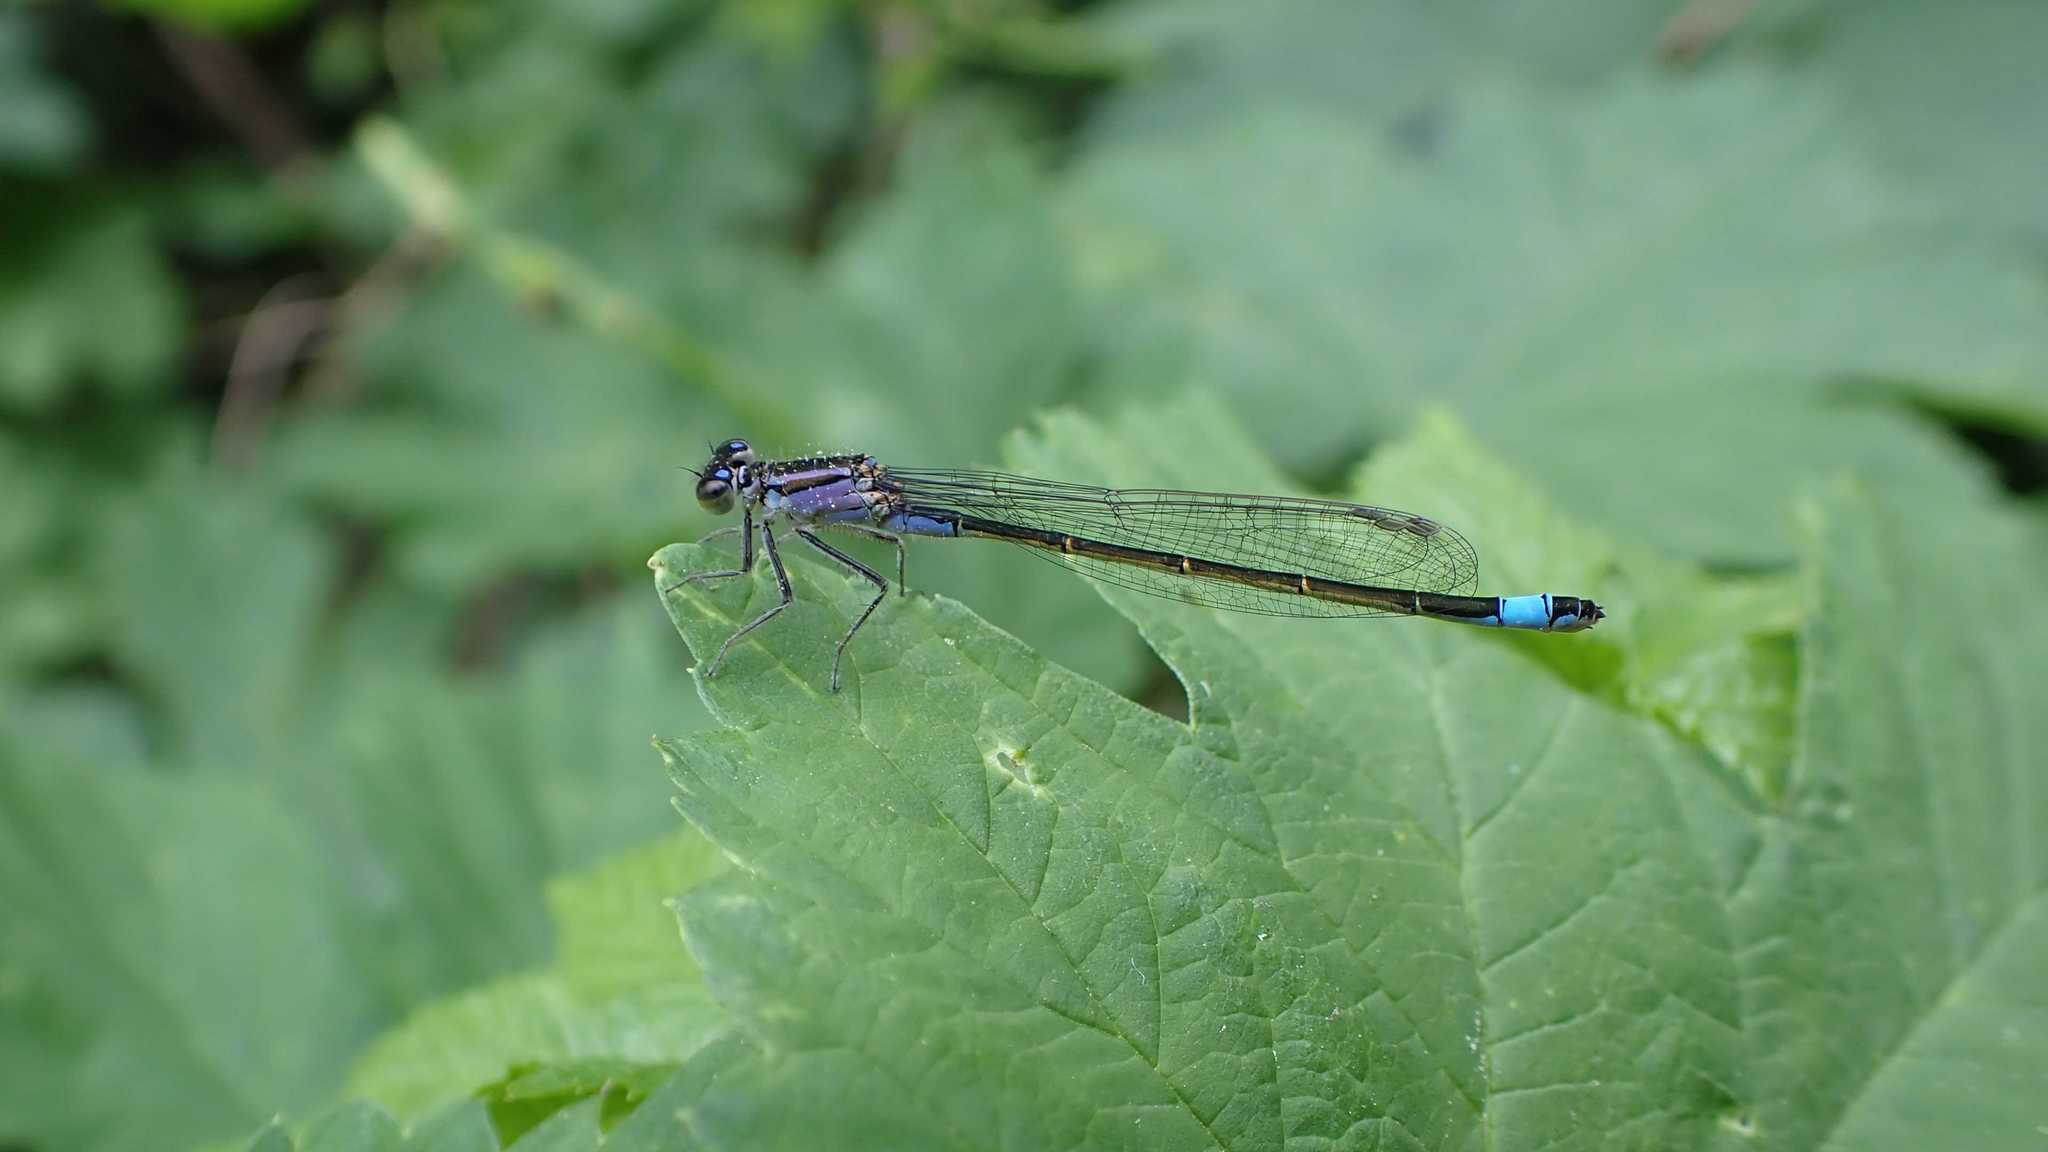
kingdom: Animalia
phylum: Arthropoda
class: Insecta
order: Odonata
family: Coenagrionidae
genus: Ischnura
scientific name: Ischnura elegans
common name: Blue-tailed damselfly
